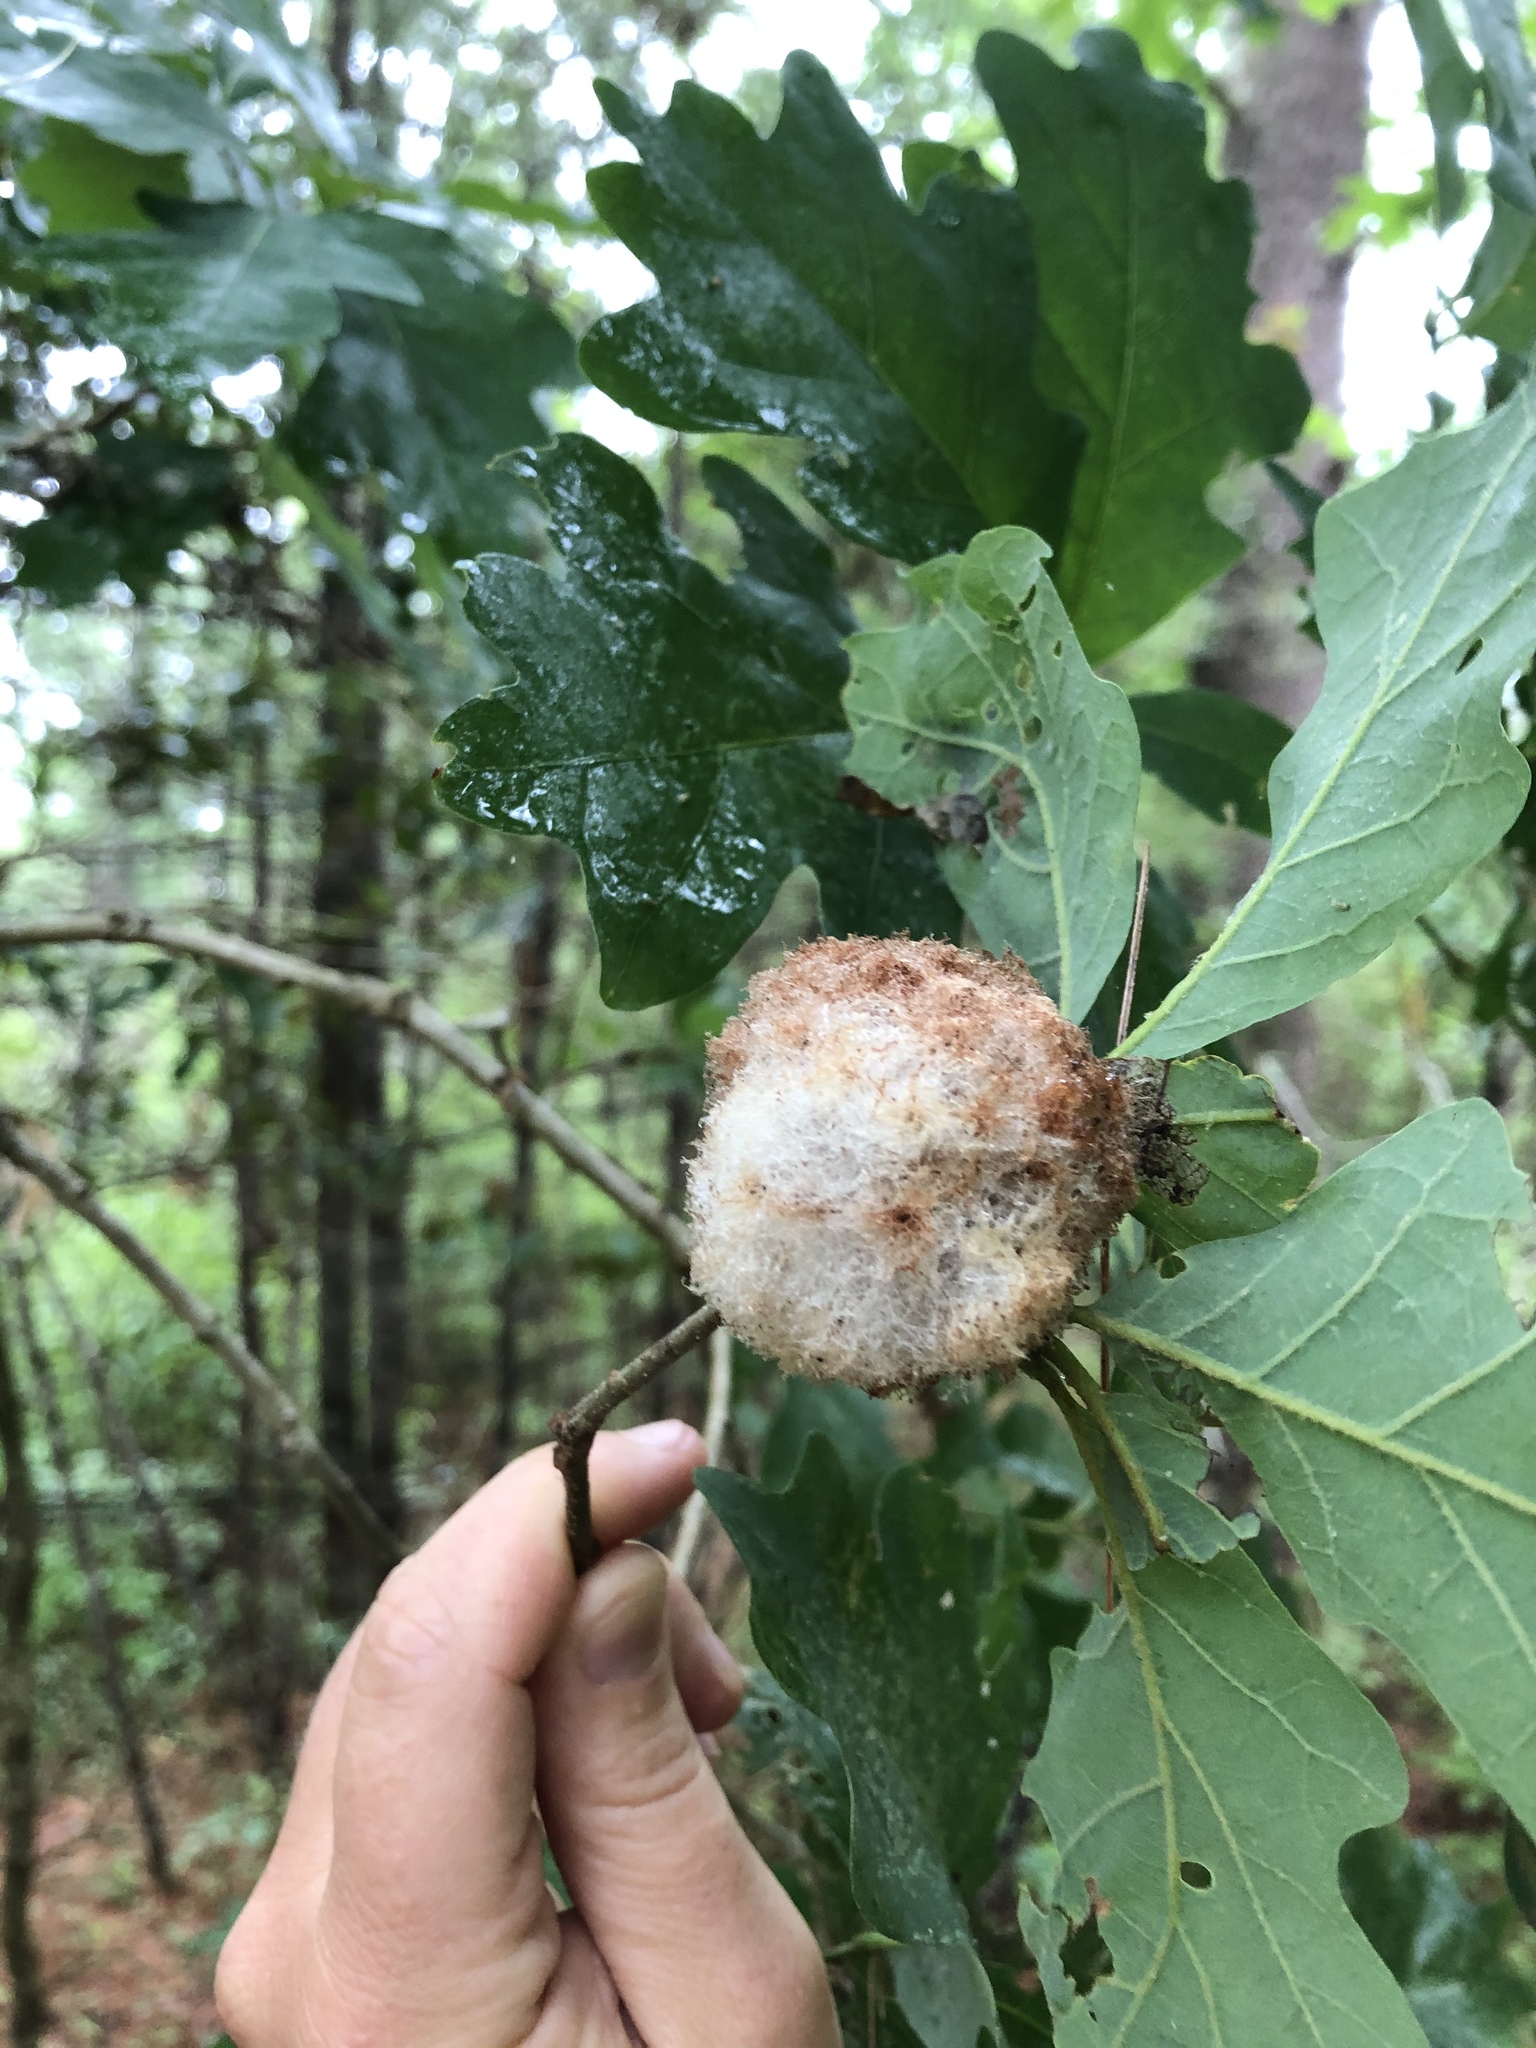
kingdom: Animalia
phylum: Arthropoda
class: Insecta
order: Hymenoptera
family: Cynipidae
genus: Callirhytis
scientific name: Callirhytis
